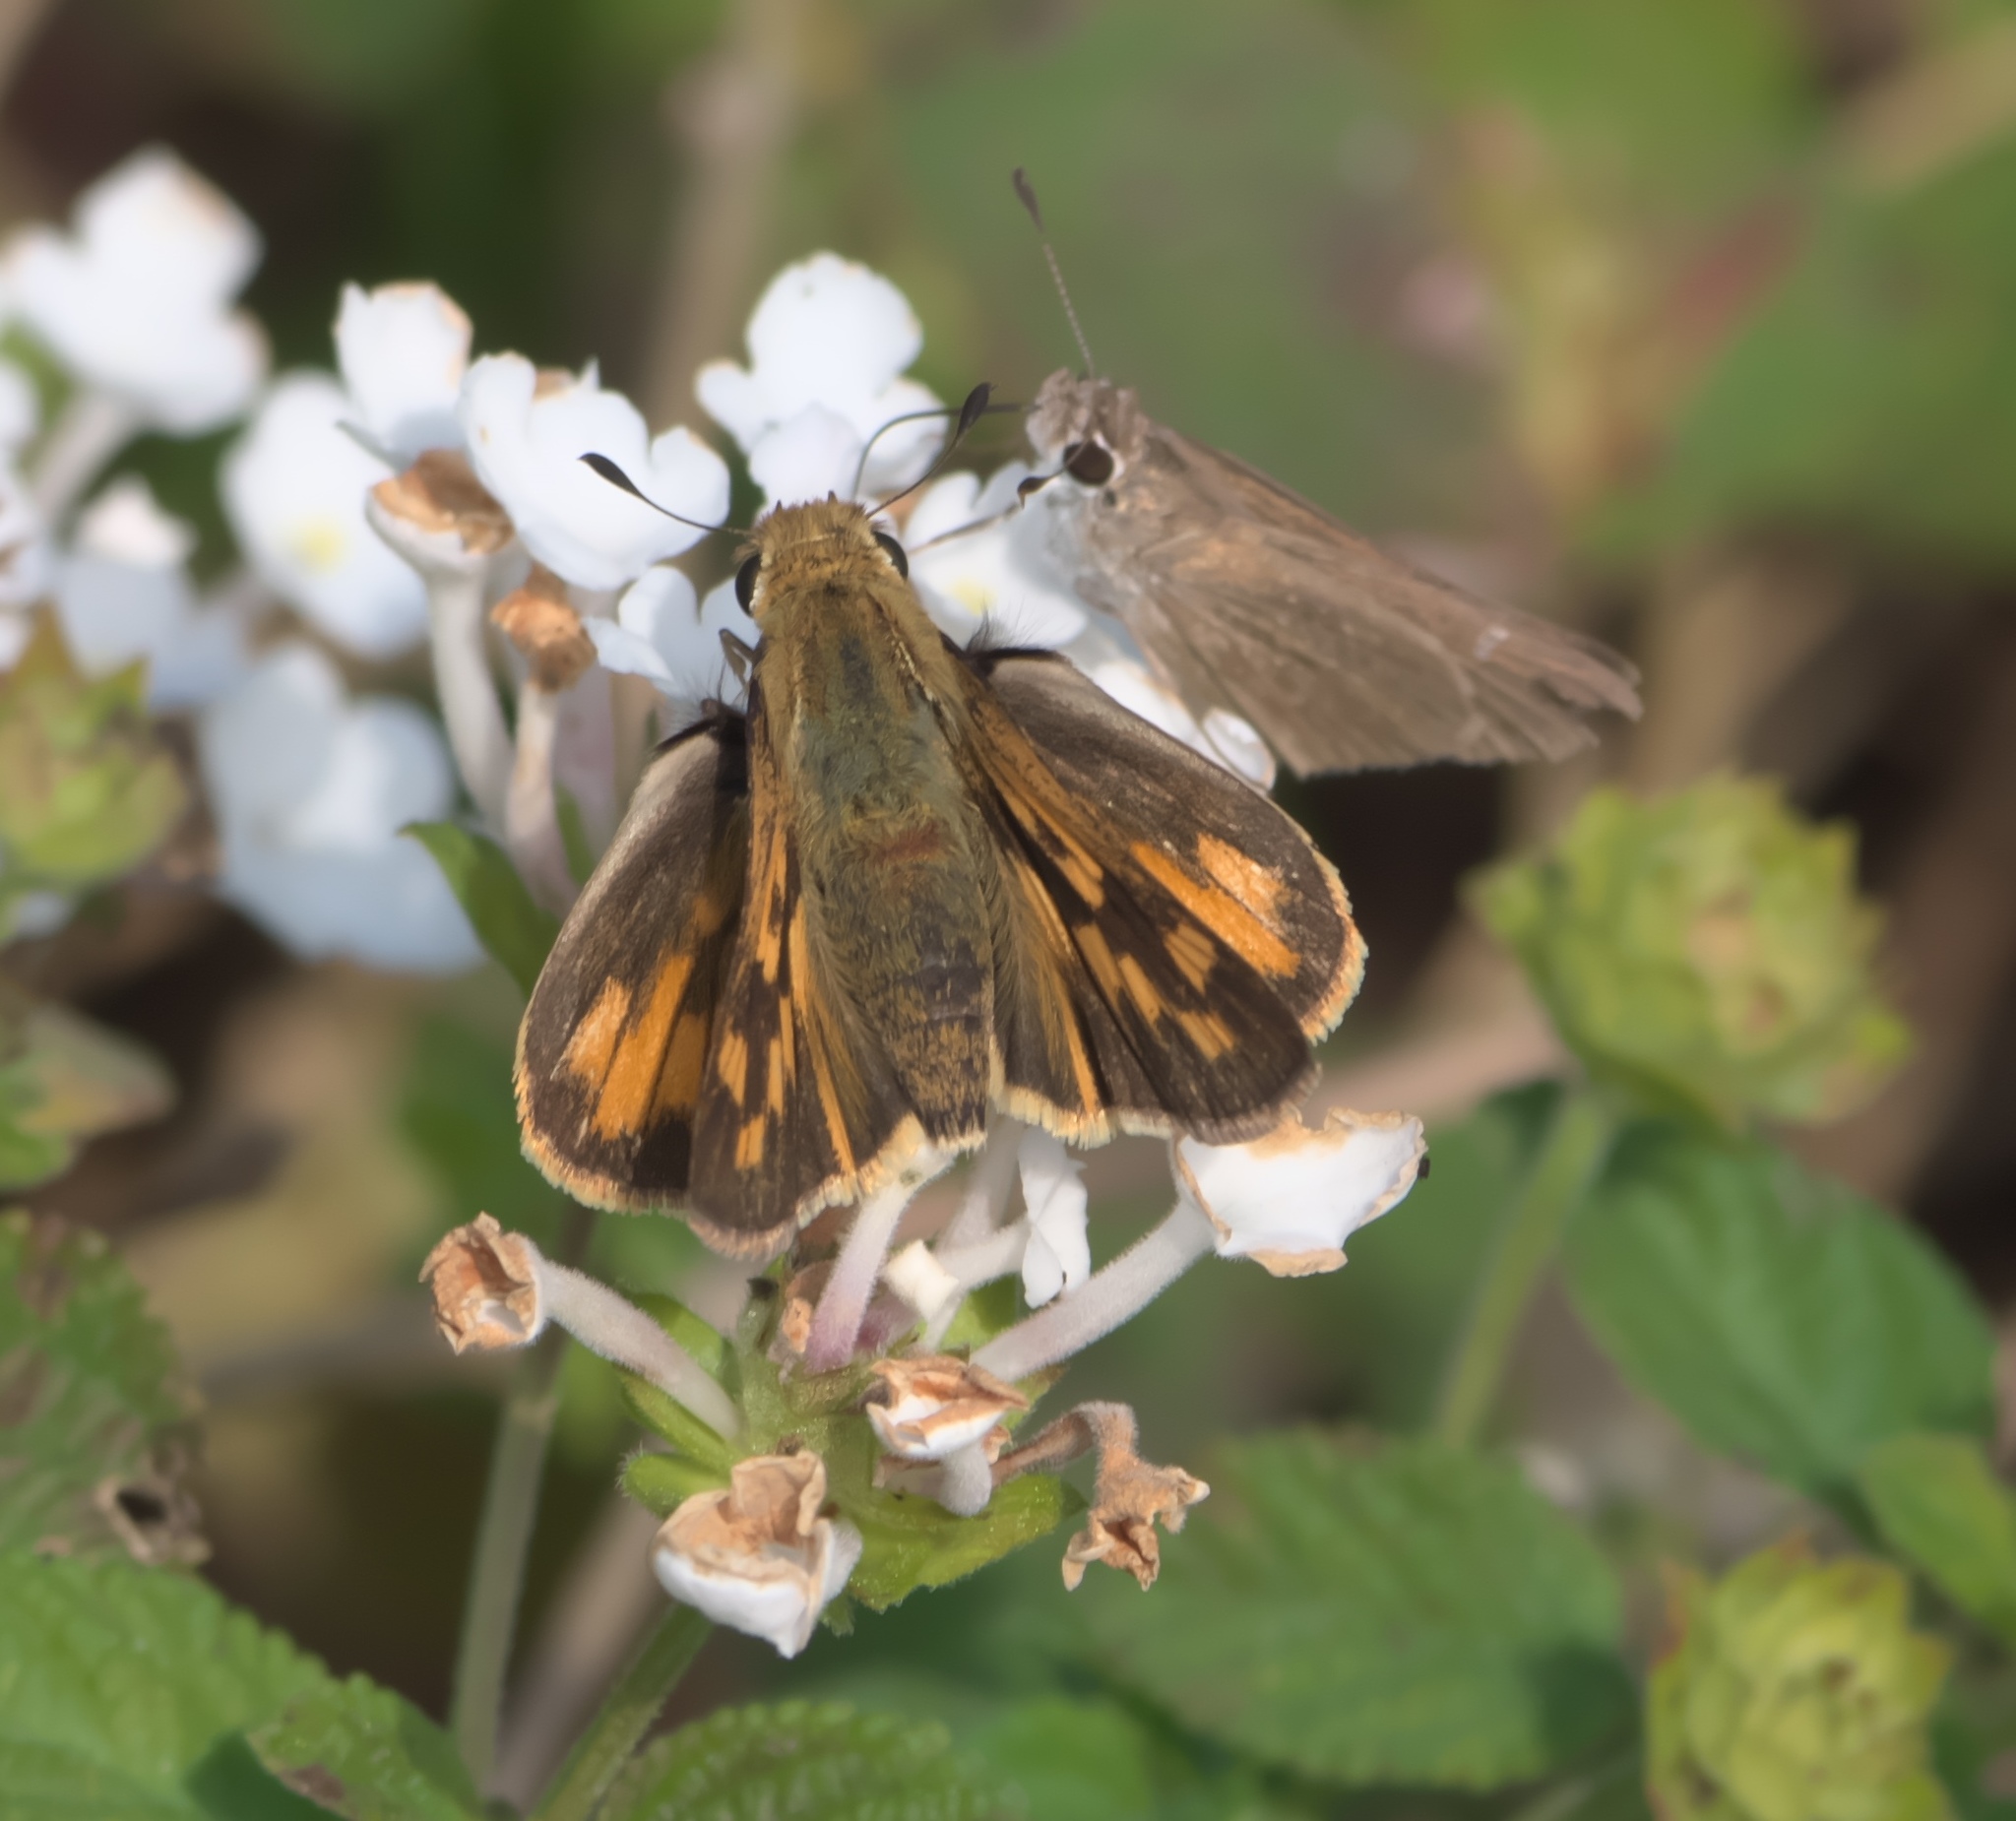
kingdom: Animalia
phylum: Arthropoda
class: Insecta
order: Lepidoptera
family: Hesperiidae
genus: Hylephila
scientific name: Hylephila phyleus
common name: Fiery skipper
